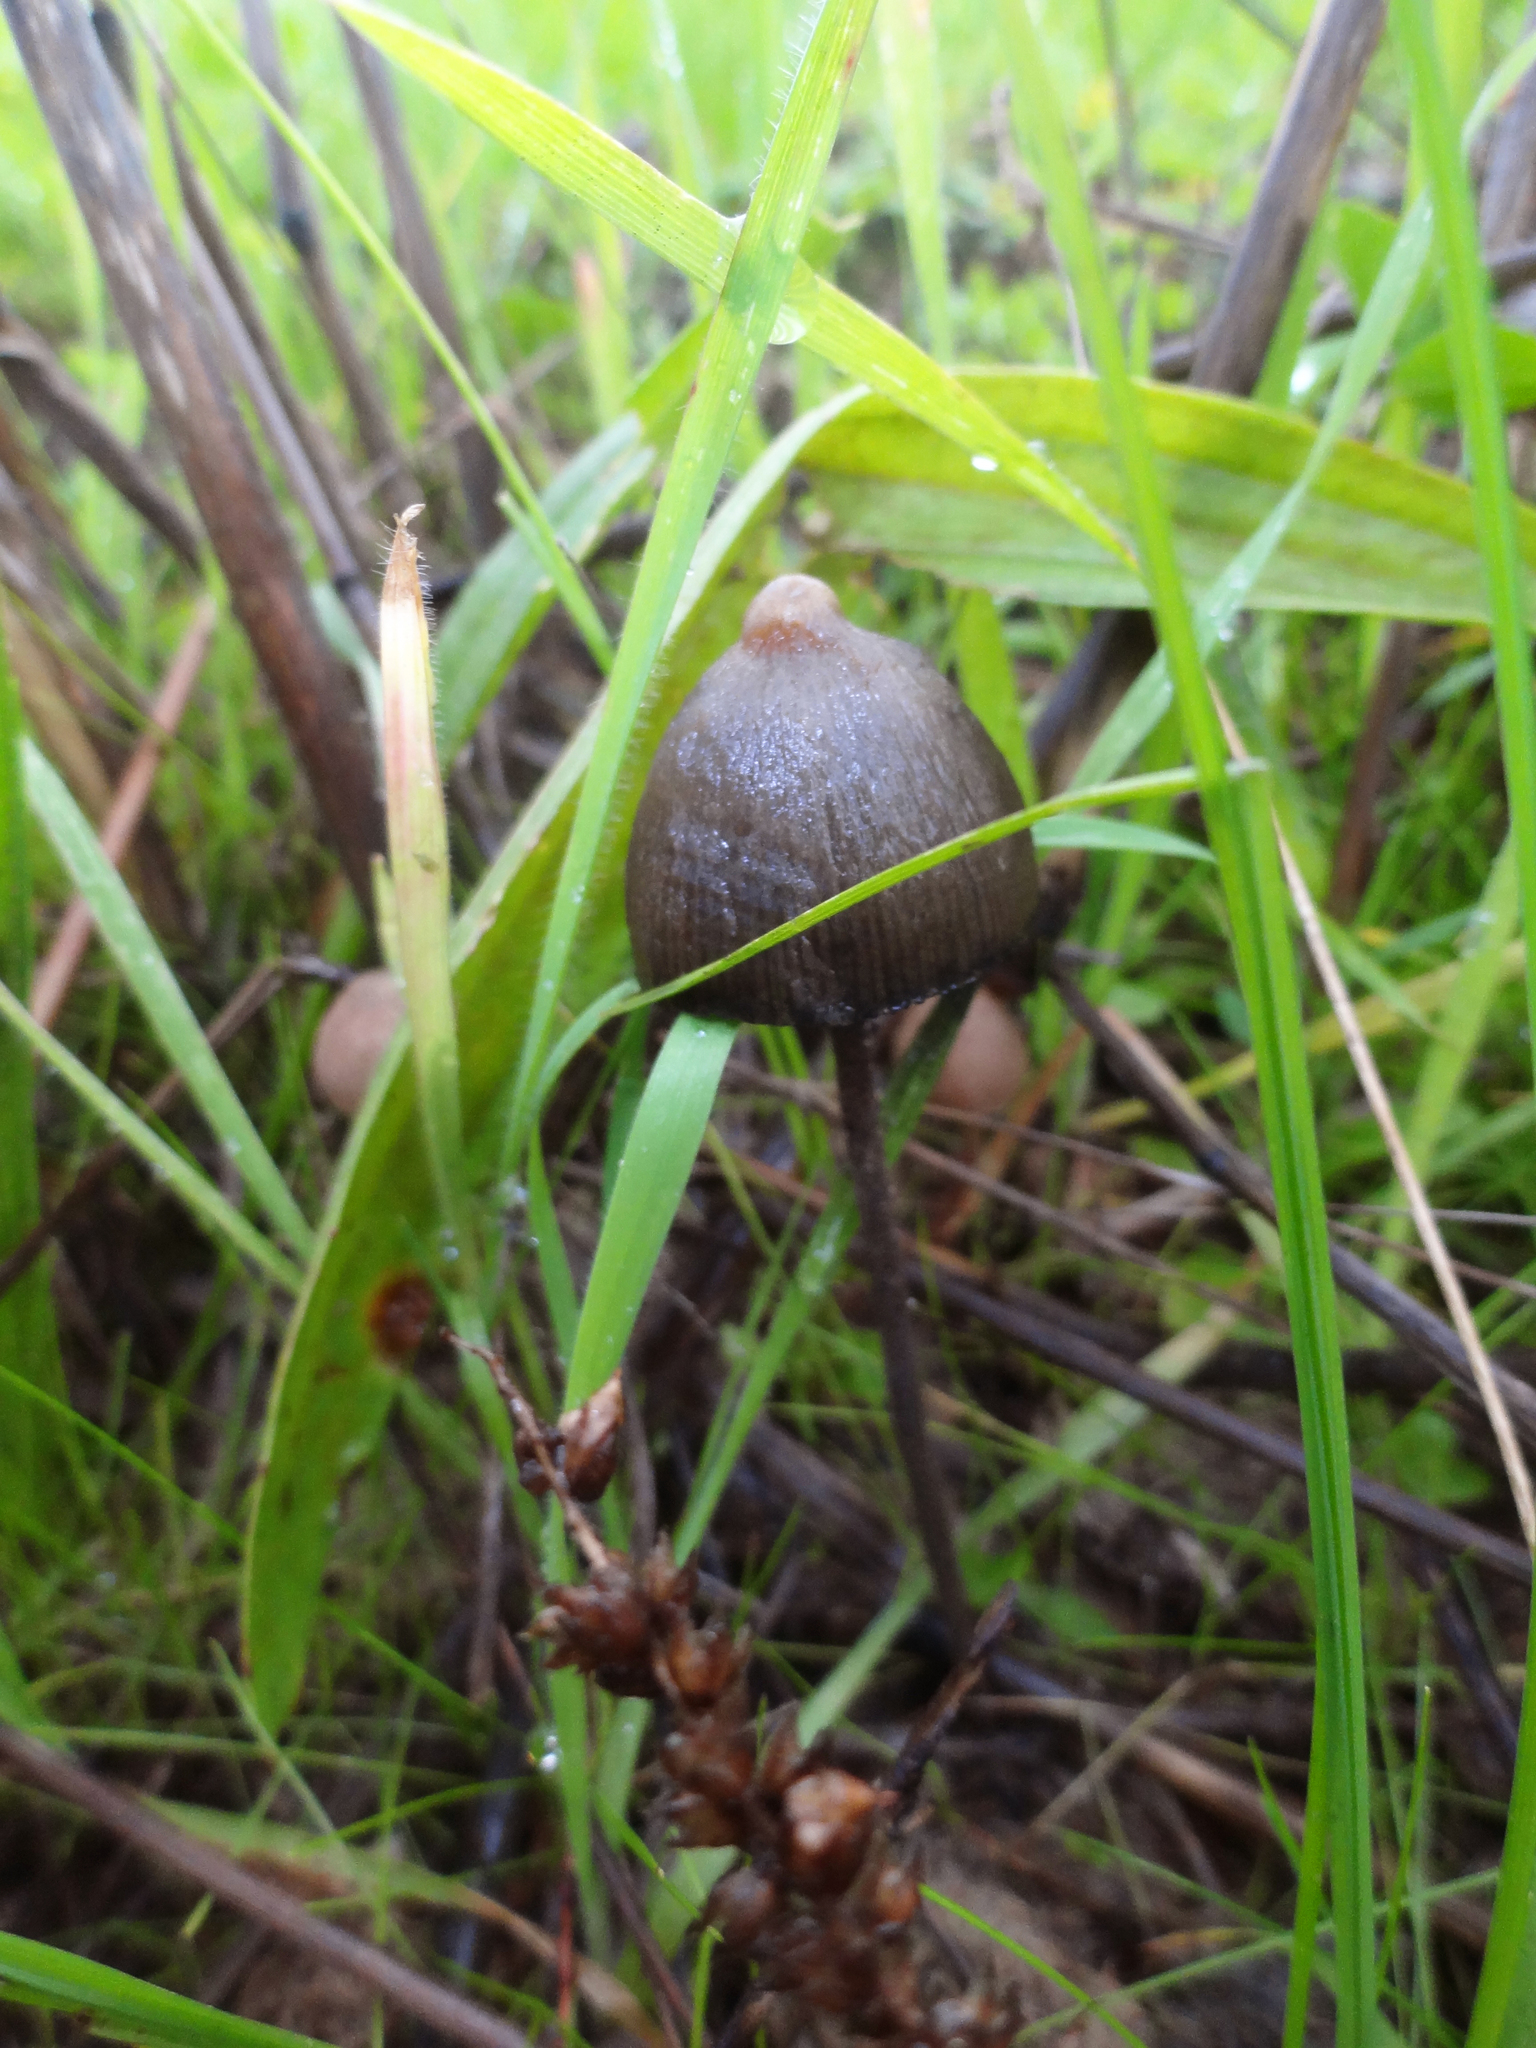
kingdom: Fungi
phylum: Basidiomycota
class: Agaricomycetes
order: Agaricales
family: Bolbitiaceae
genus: Panaeolus
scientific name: Panaeolus papilionaceus
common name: Petticoat mottlegill
